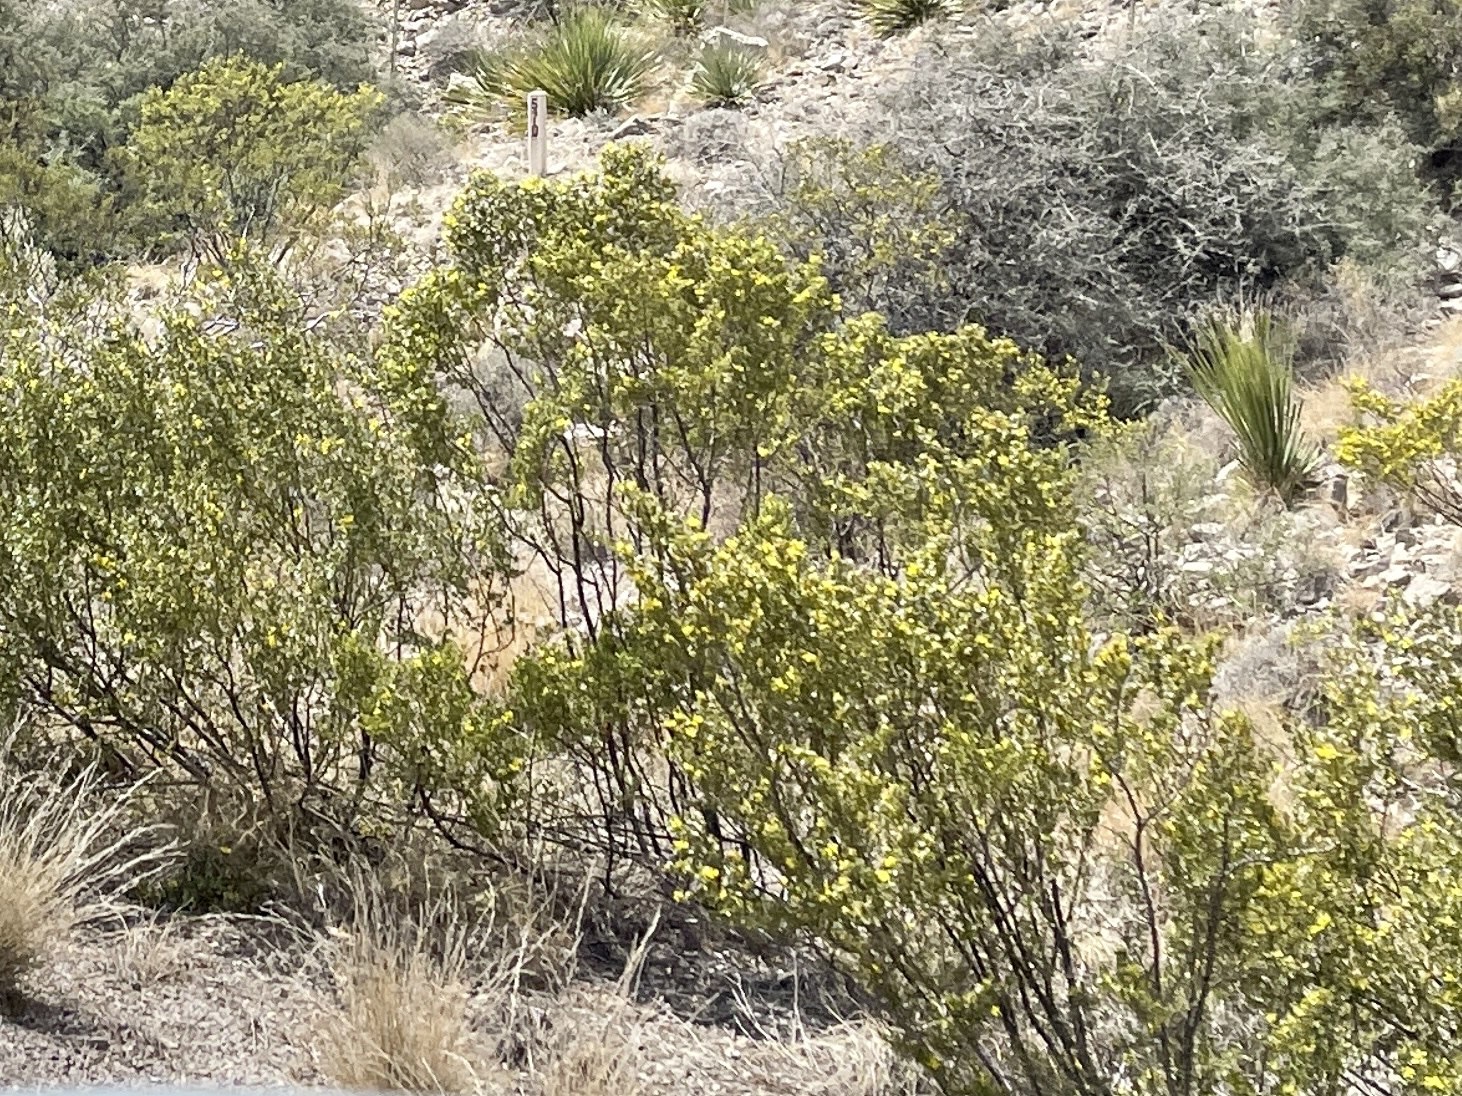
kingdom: Plantae
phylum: Tracheophyta
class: Magnoliopsida
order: Zygophyllales
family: Zygophyllaceae
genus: Larrea
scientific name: Larrea tridentata
